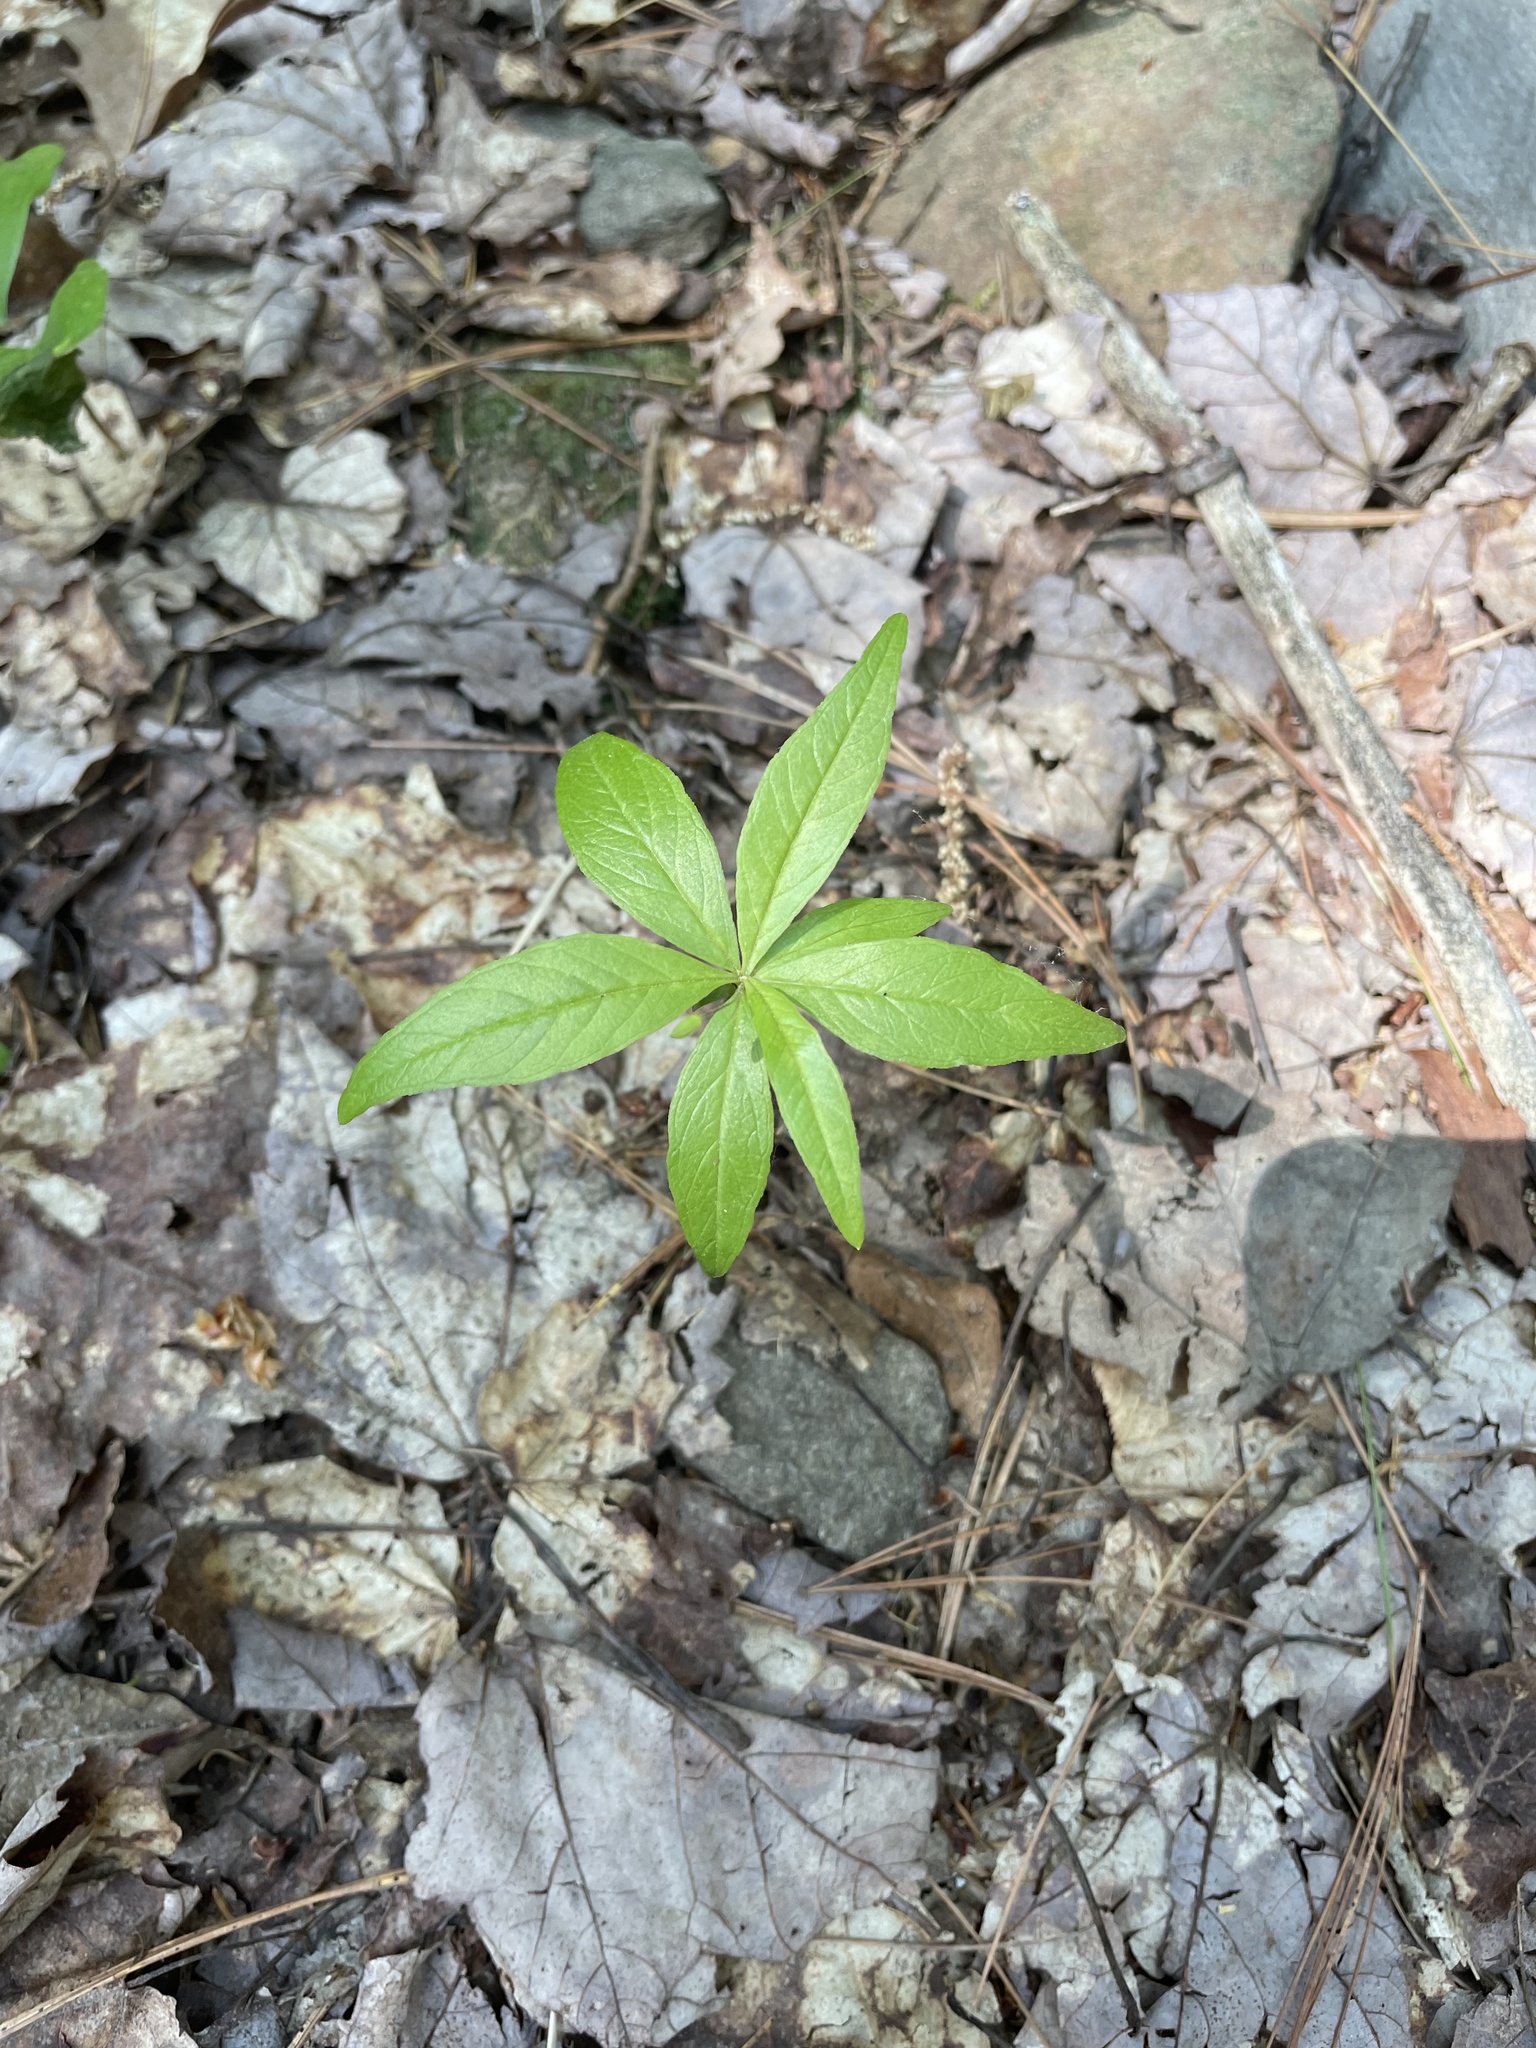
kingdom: Plantae
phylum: Tracheophyta
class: Magnoliopsida
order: Ericales
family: Primulaceae
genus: Lysimachia
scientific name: Lysimachia borealis
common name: American starflower
